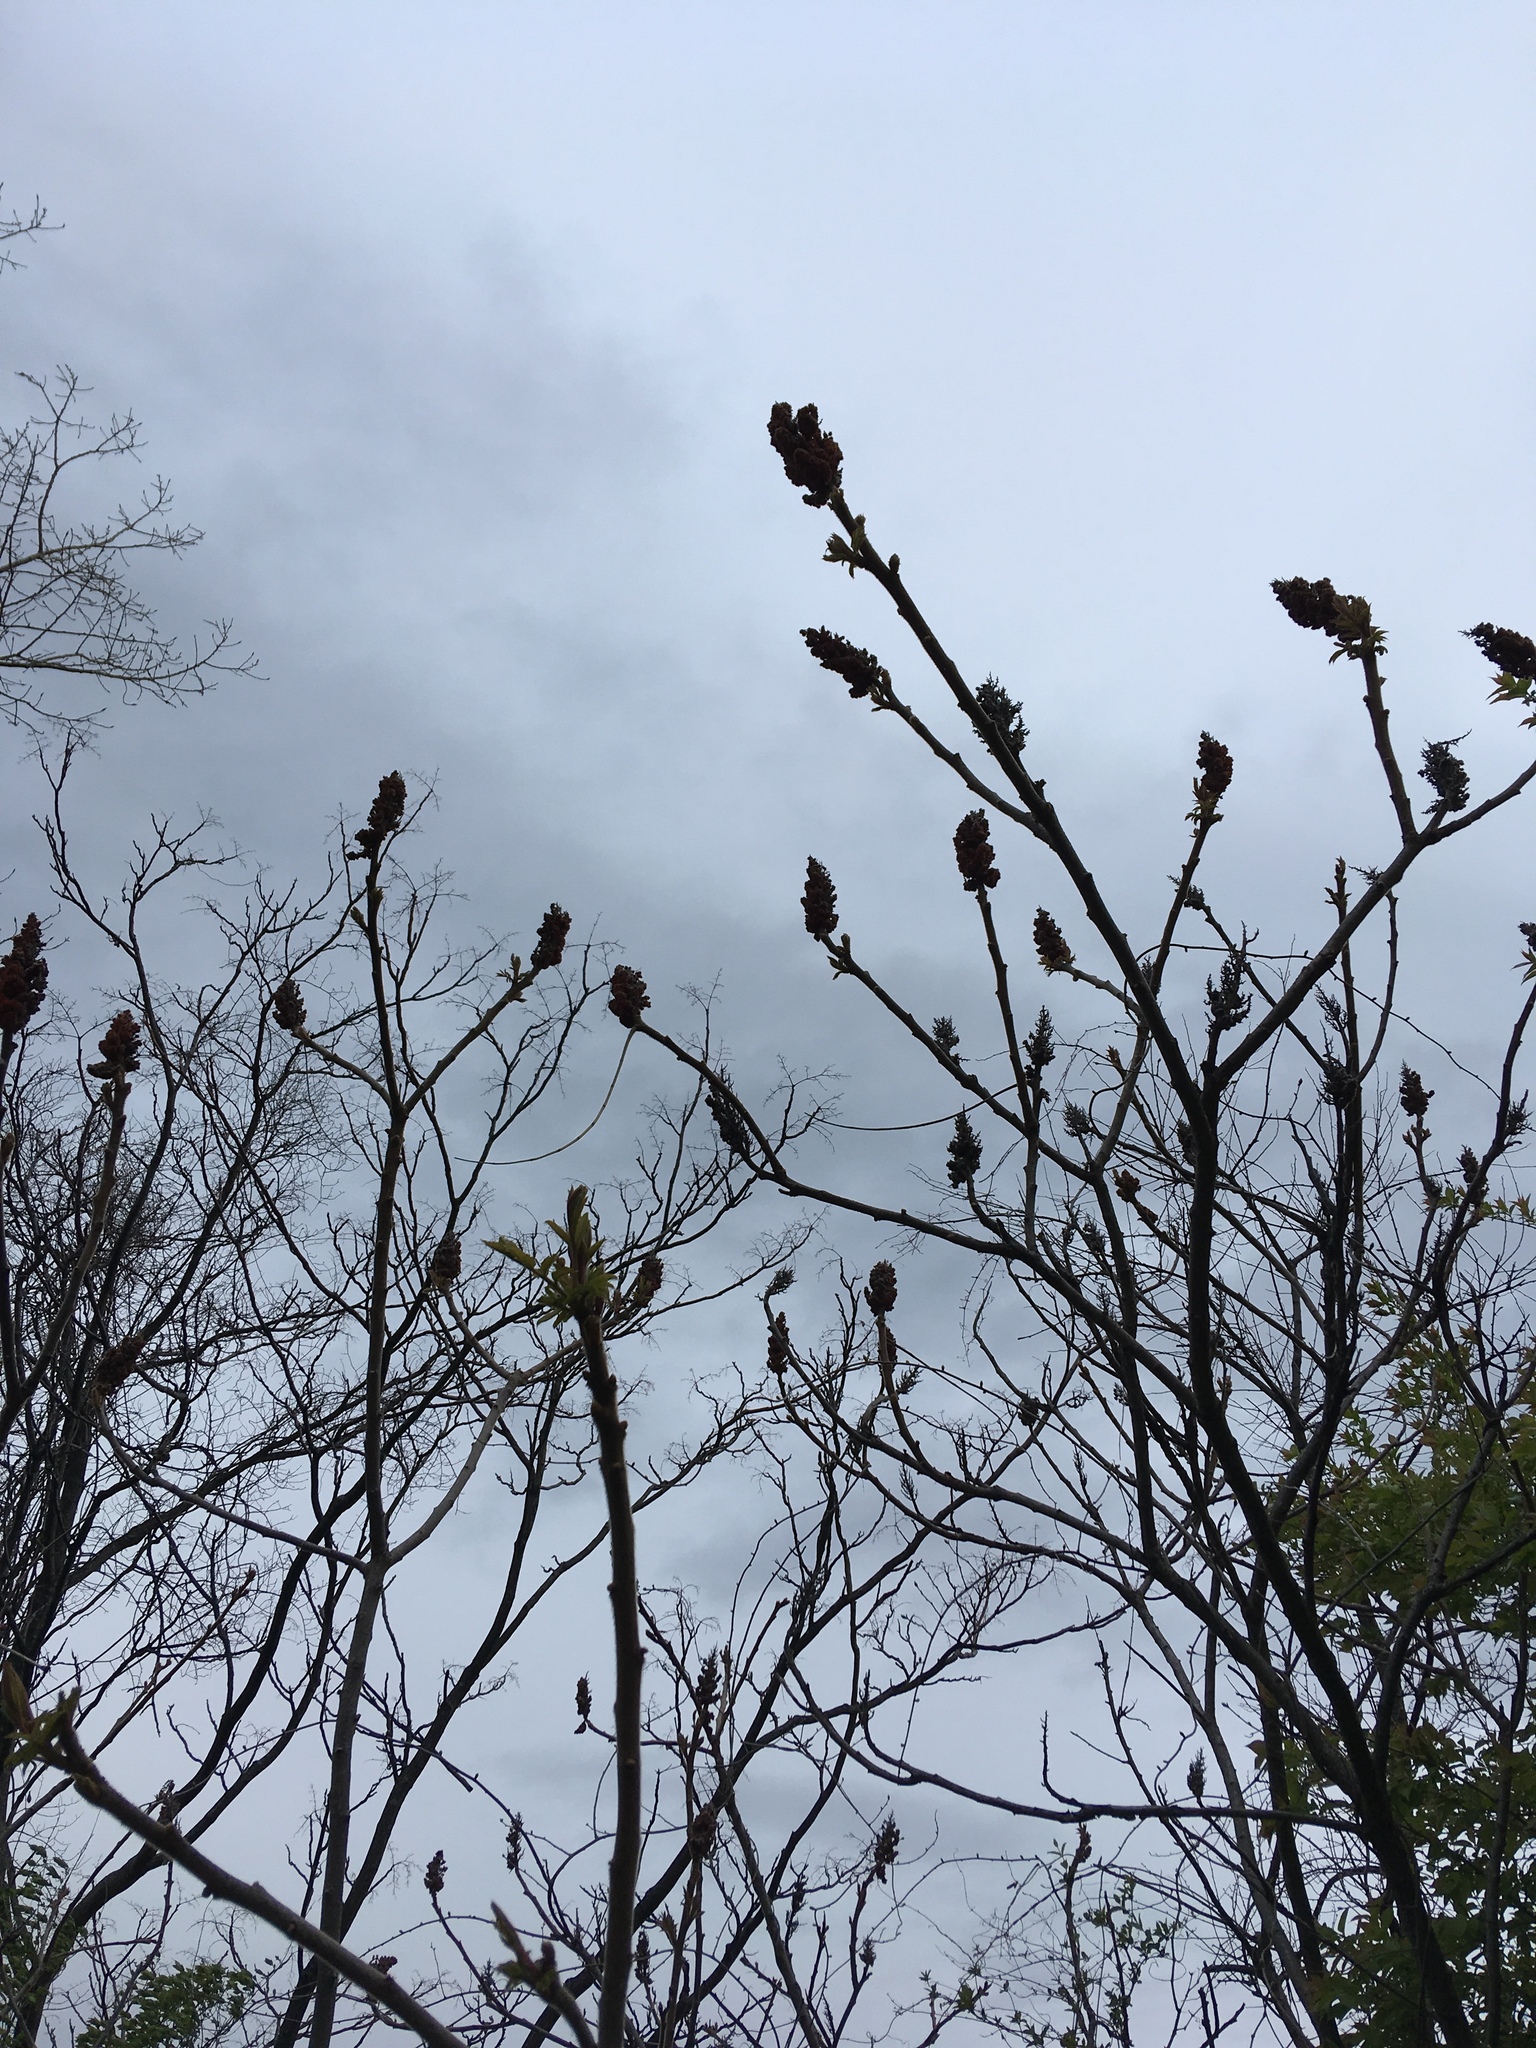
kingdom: Plantae
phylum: Tracheophyta
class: Magnoliopsida
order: Sapindales
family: Anacardiaceae
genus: Rhus
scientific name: Rhus typhina
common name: Staghorn sumac
